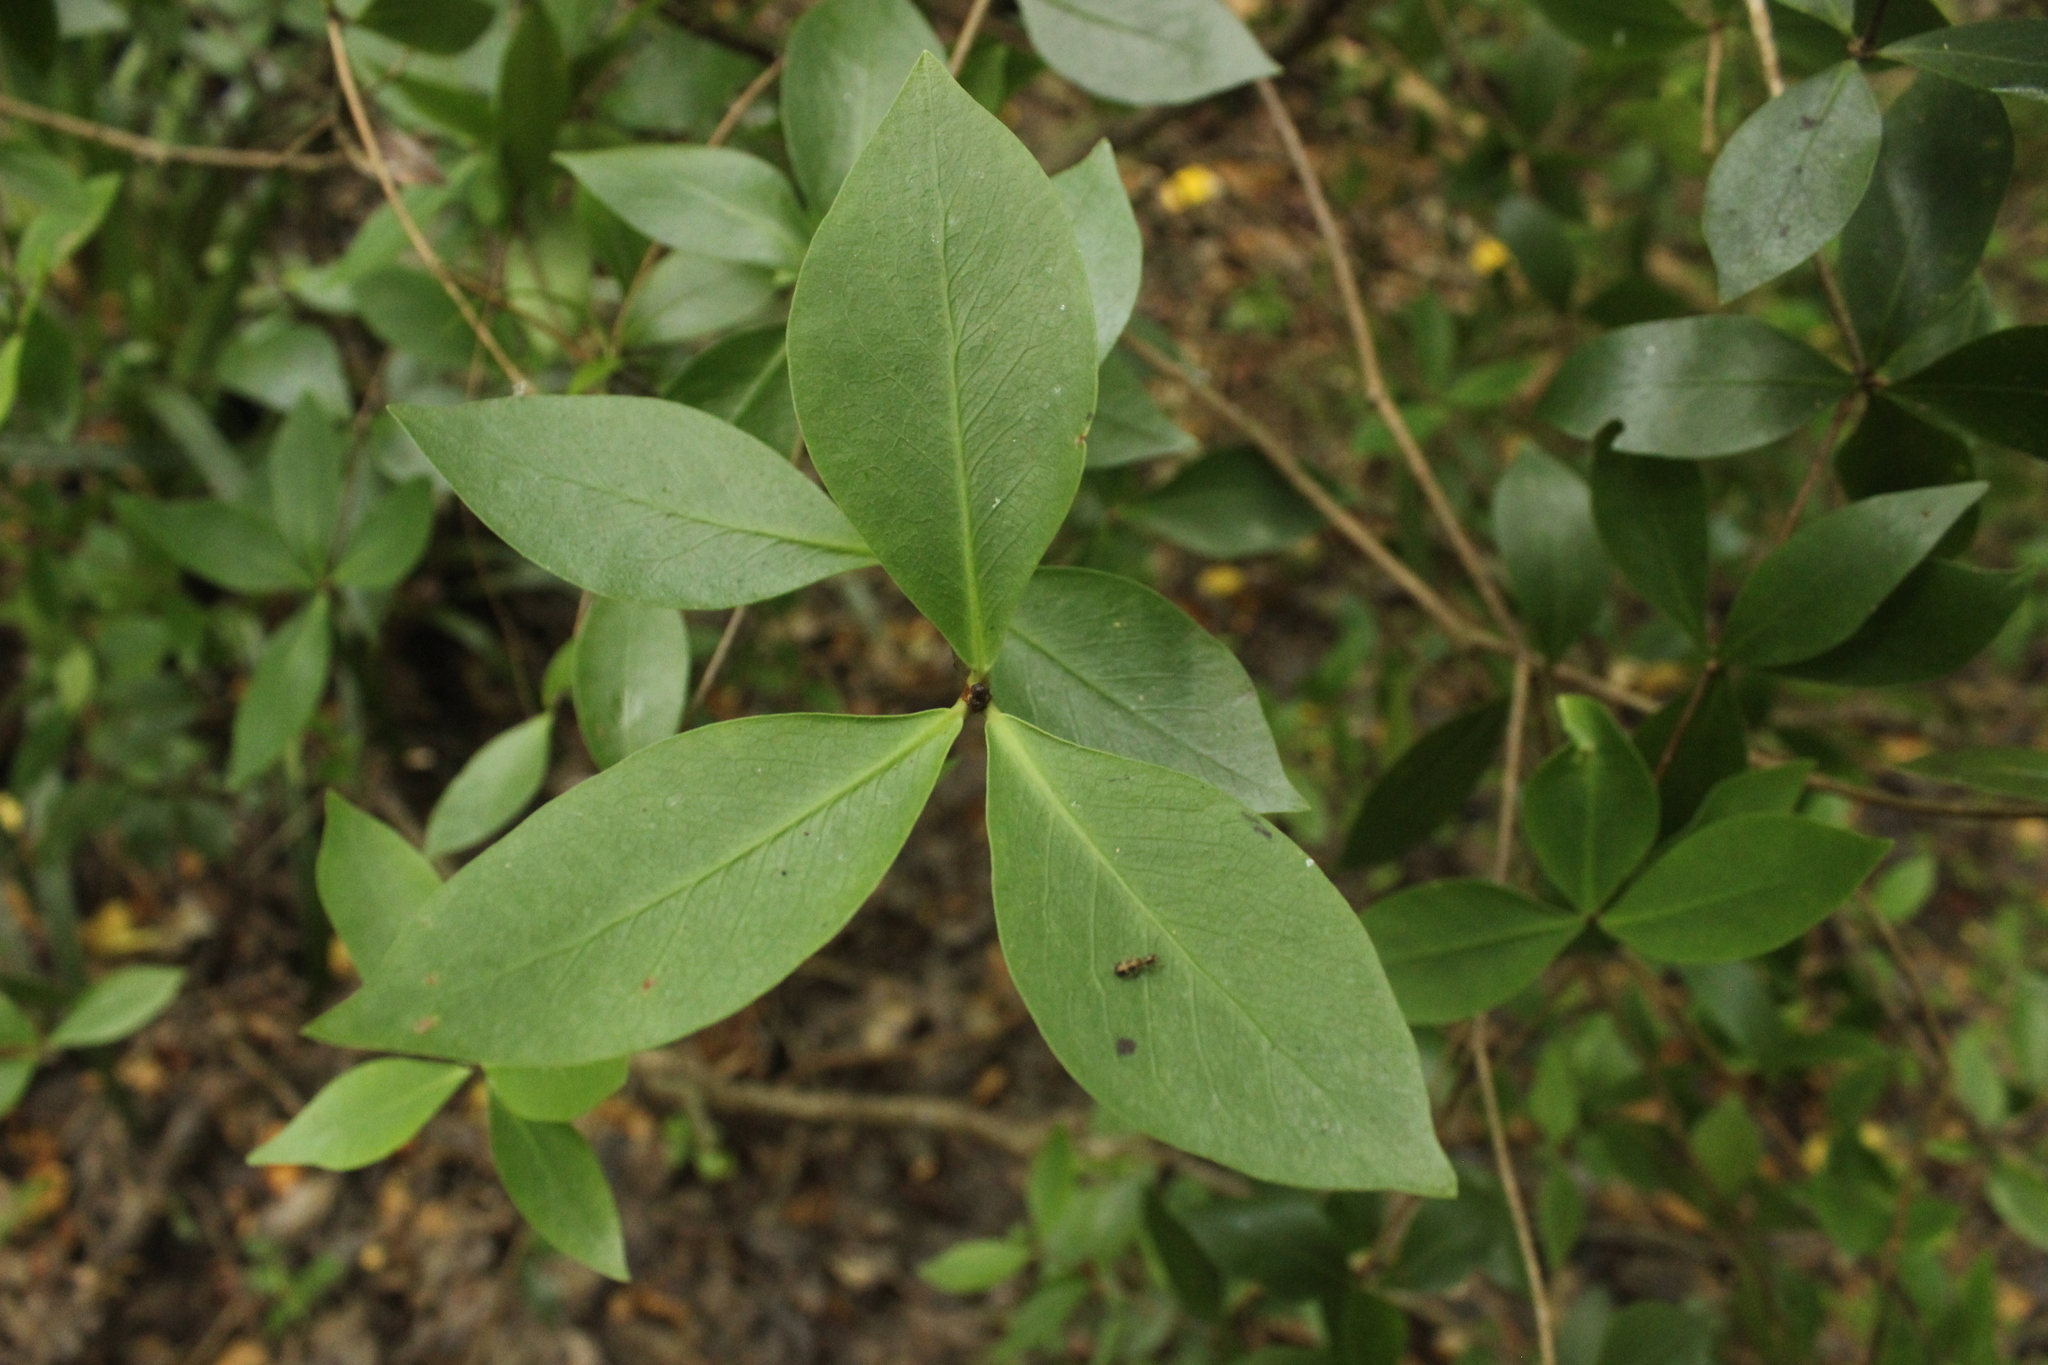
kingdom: Plantae
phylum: Tracheophyta
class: Magnoliopsida
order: Apiales
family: Pittosporaceae
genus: Pittosporum
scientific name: Pittosporum cornifolium
